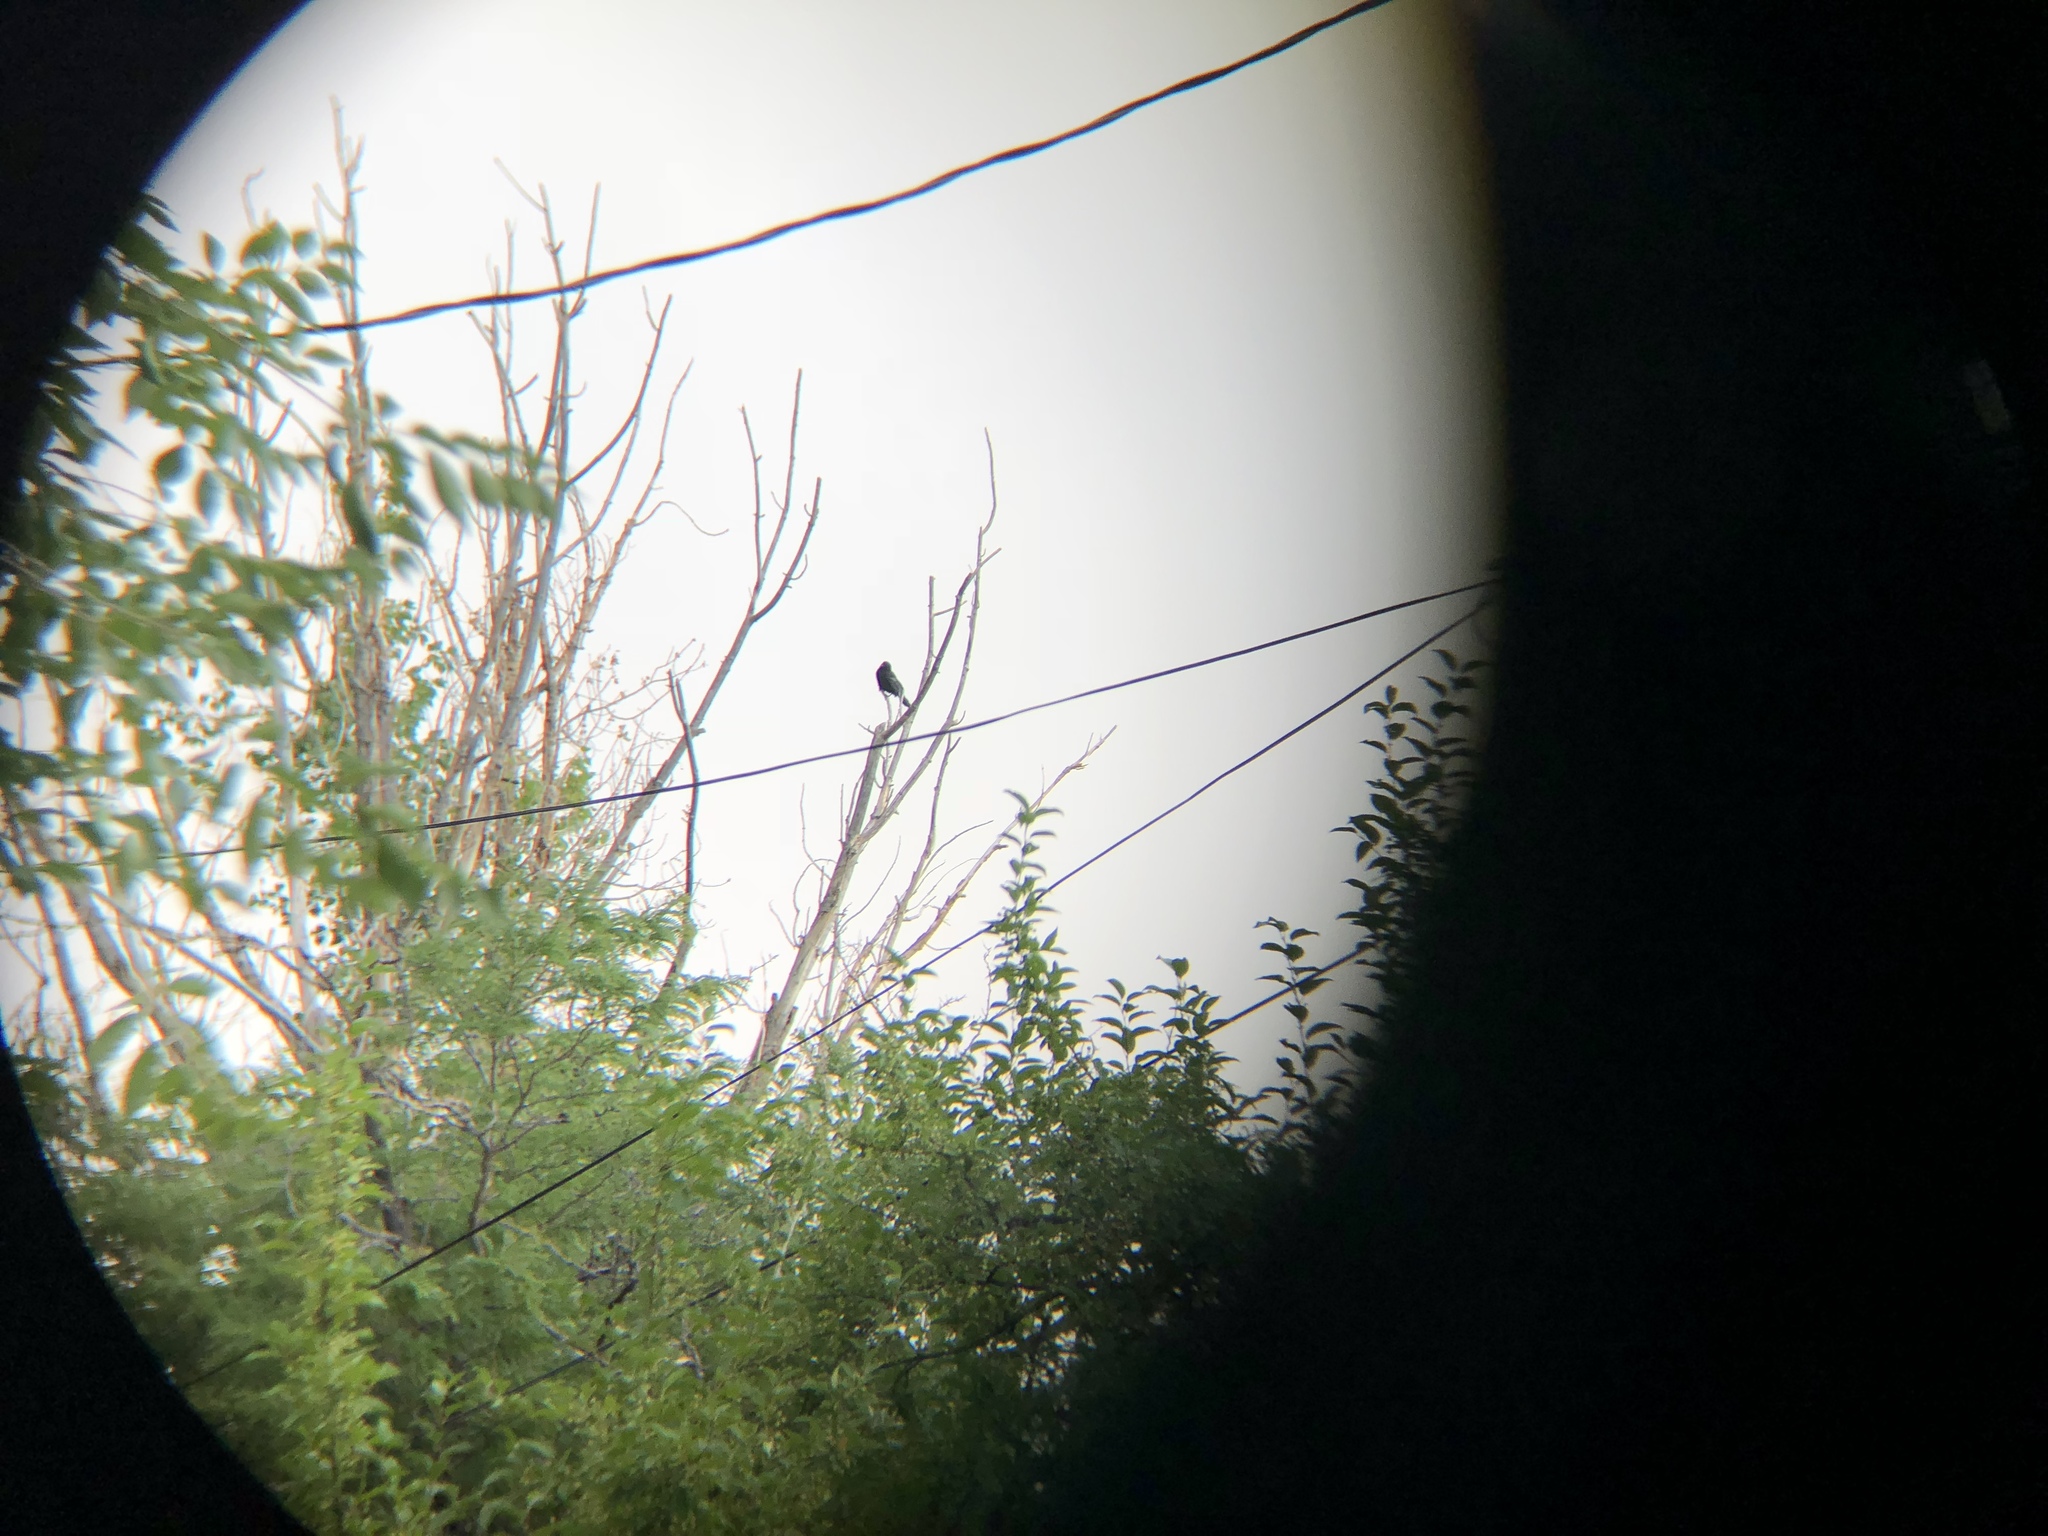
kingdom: Animalia
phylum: Chordata
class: Aves
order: Passeriformes
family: Corvidae
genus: Corvus
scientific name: Corvus brachyrhynchos
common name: American crow
